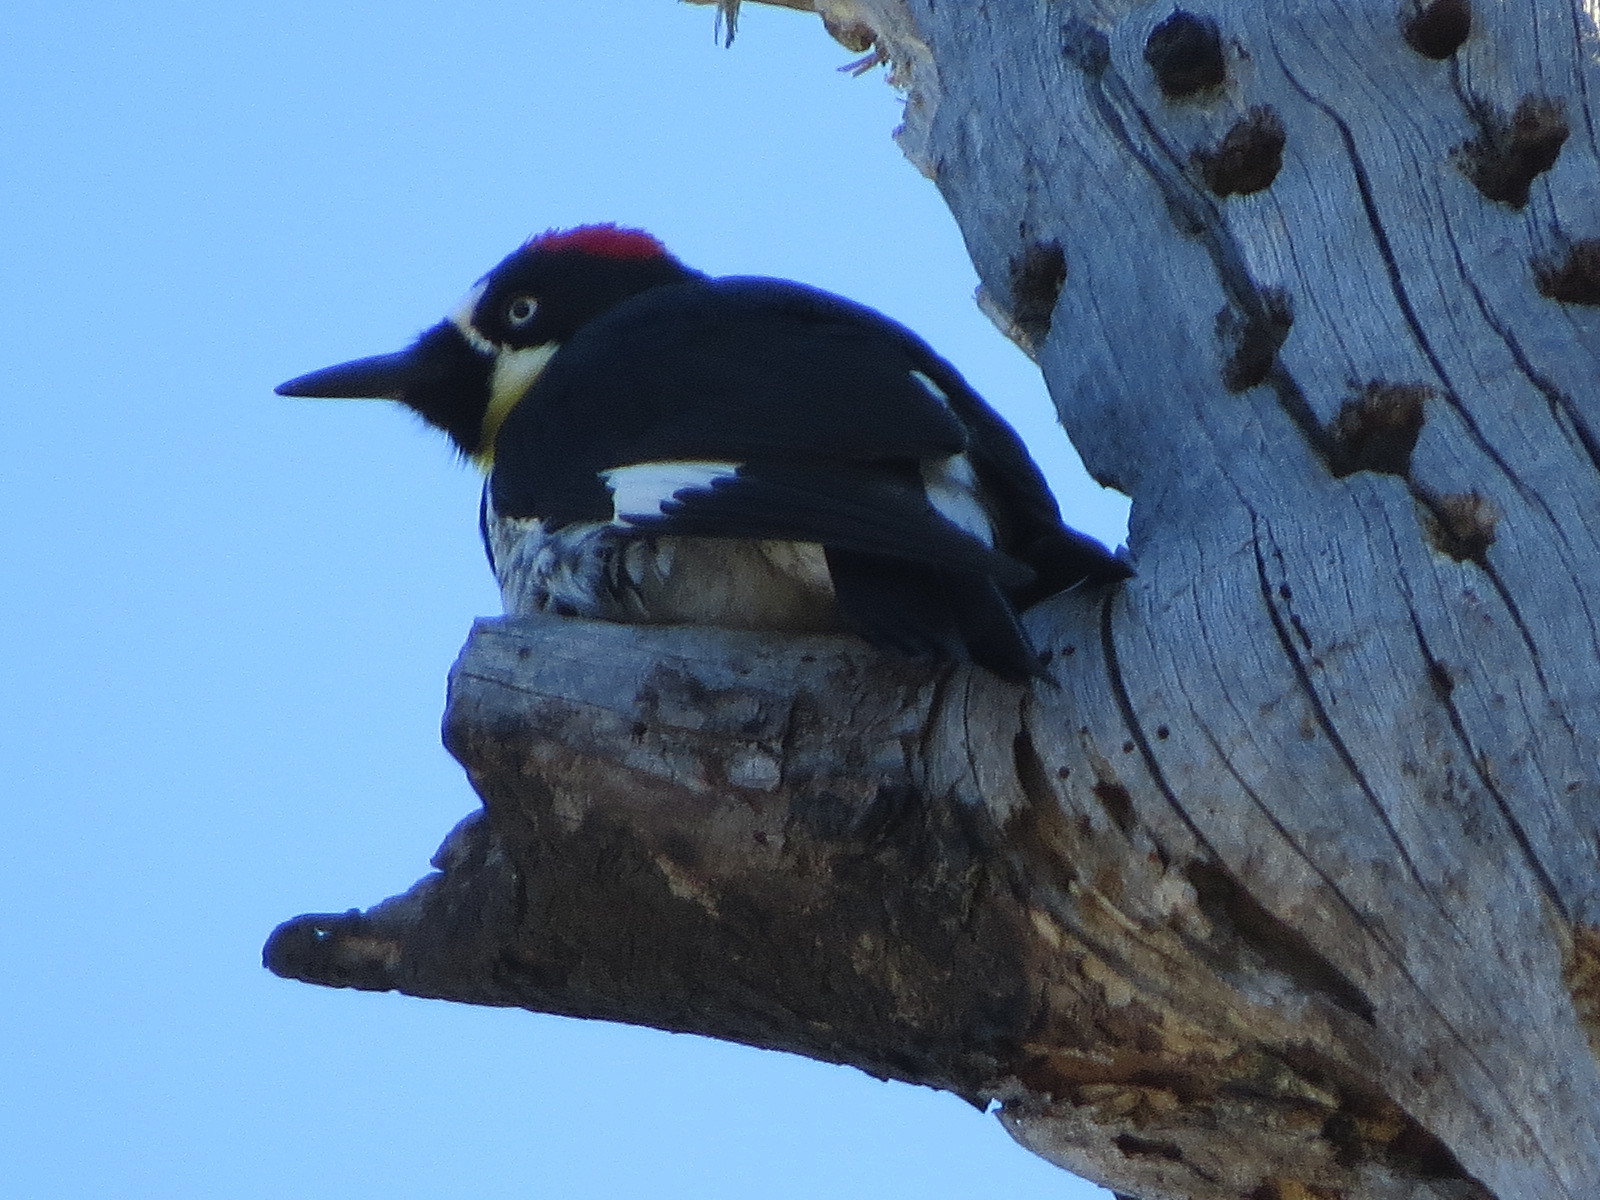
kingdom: Animalia
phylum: Chordata
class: Aves
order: Piciformes
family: Picidae
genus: Melanerpes
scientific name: Melanerpes formicivorus
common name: Acorn woodpecker
